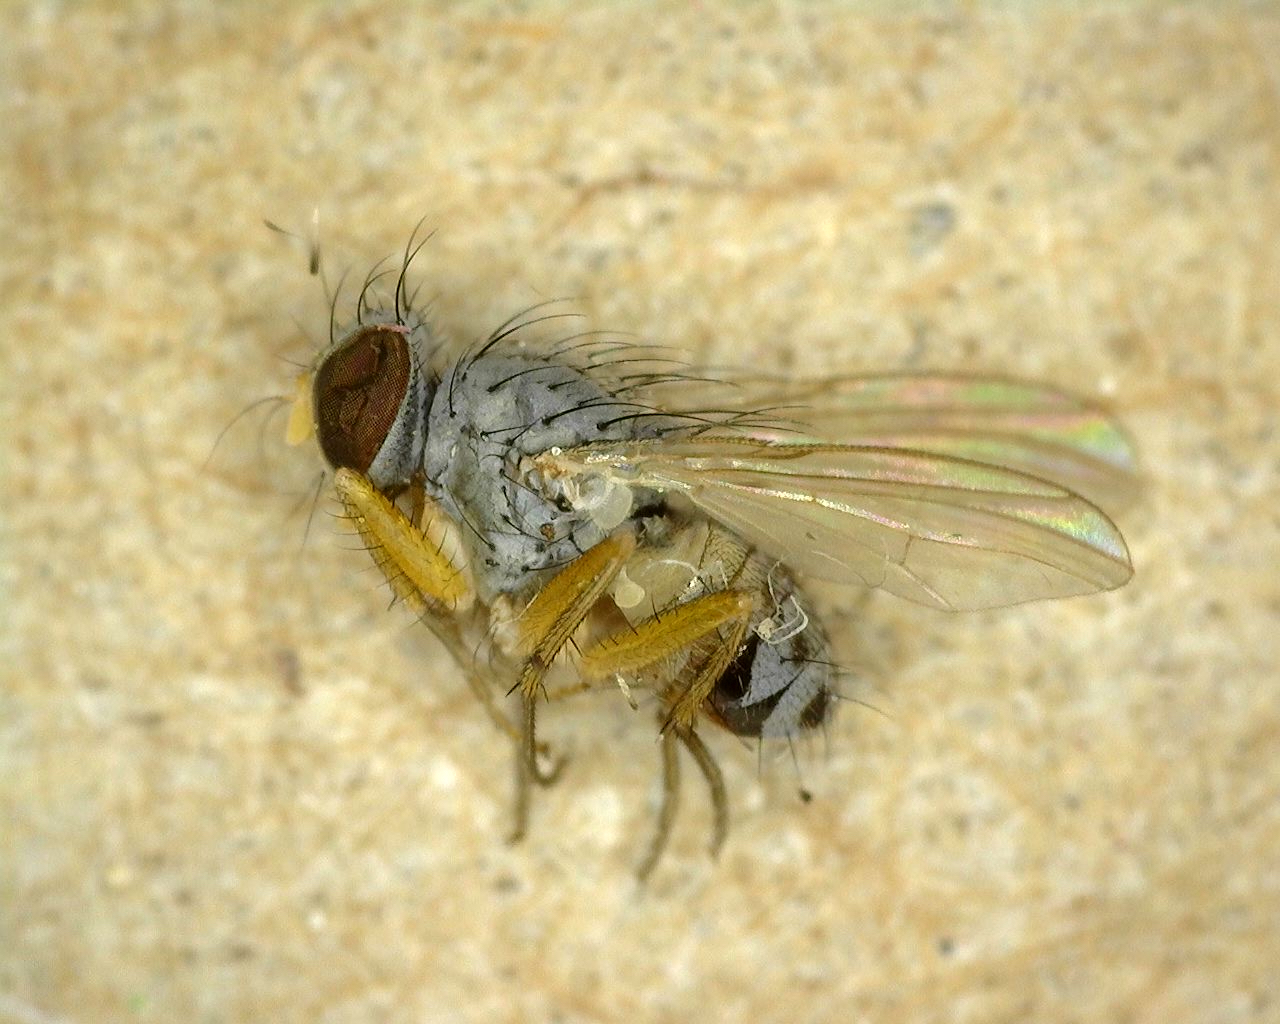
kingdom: Animalia
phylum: Arthropoda
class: Insecta
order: Diptera
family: Muscidae
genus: Neodexiopsis
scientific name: Neodexiopsis calopyga
